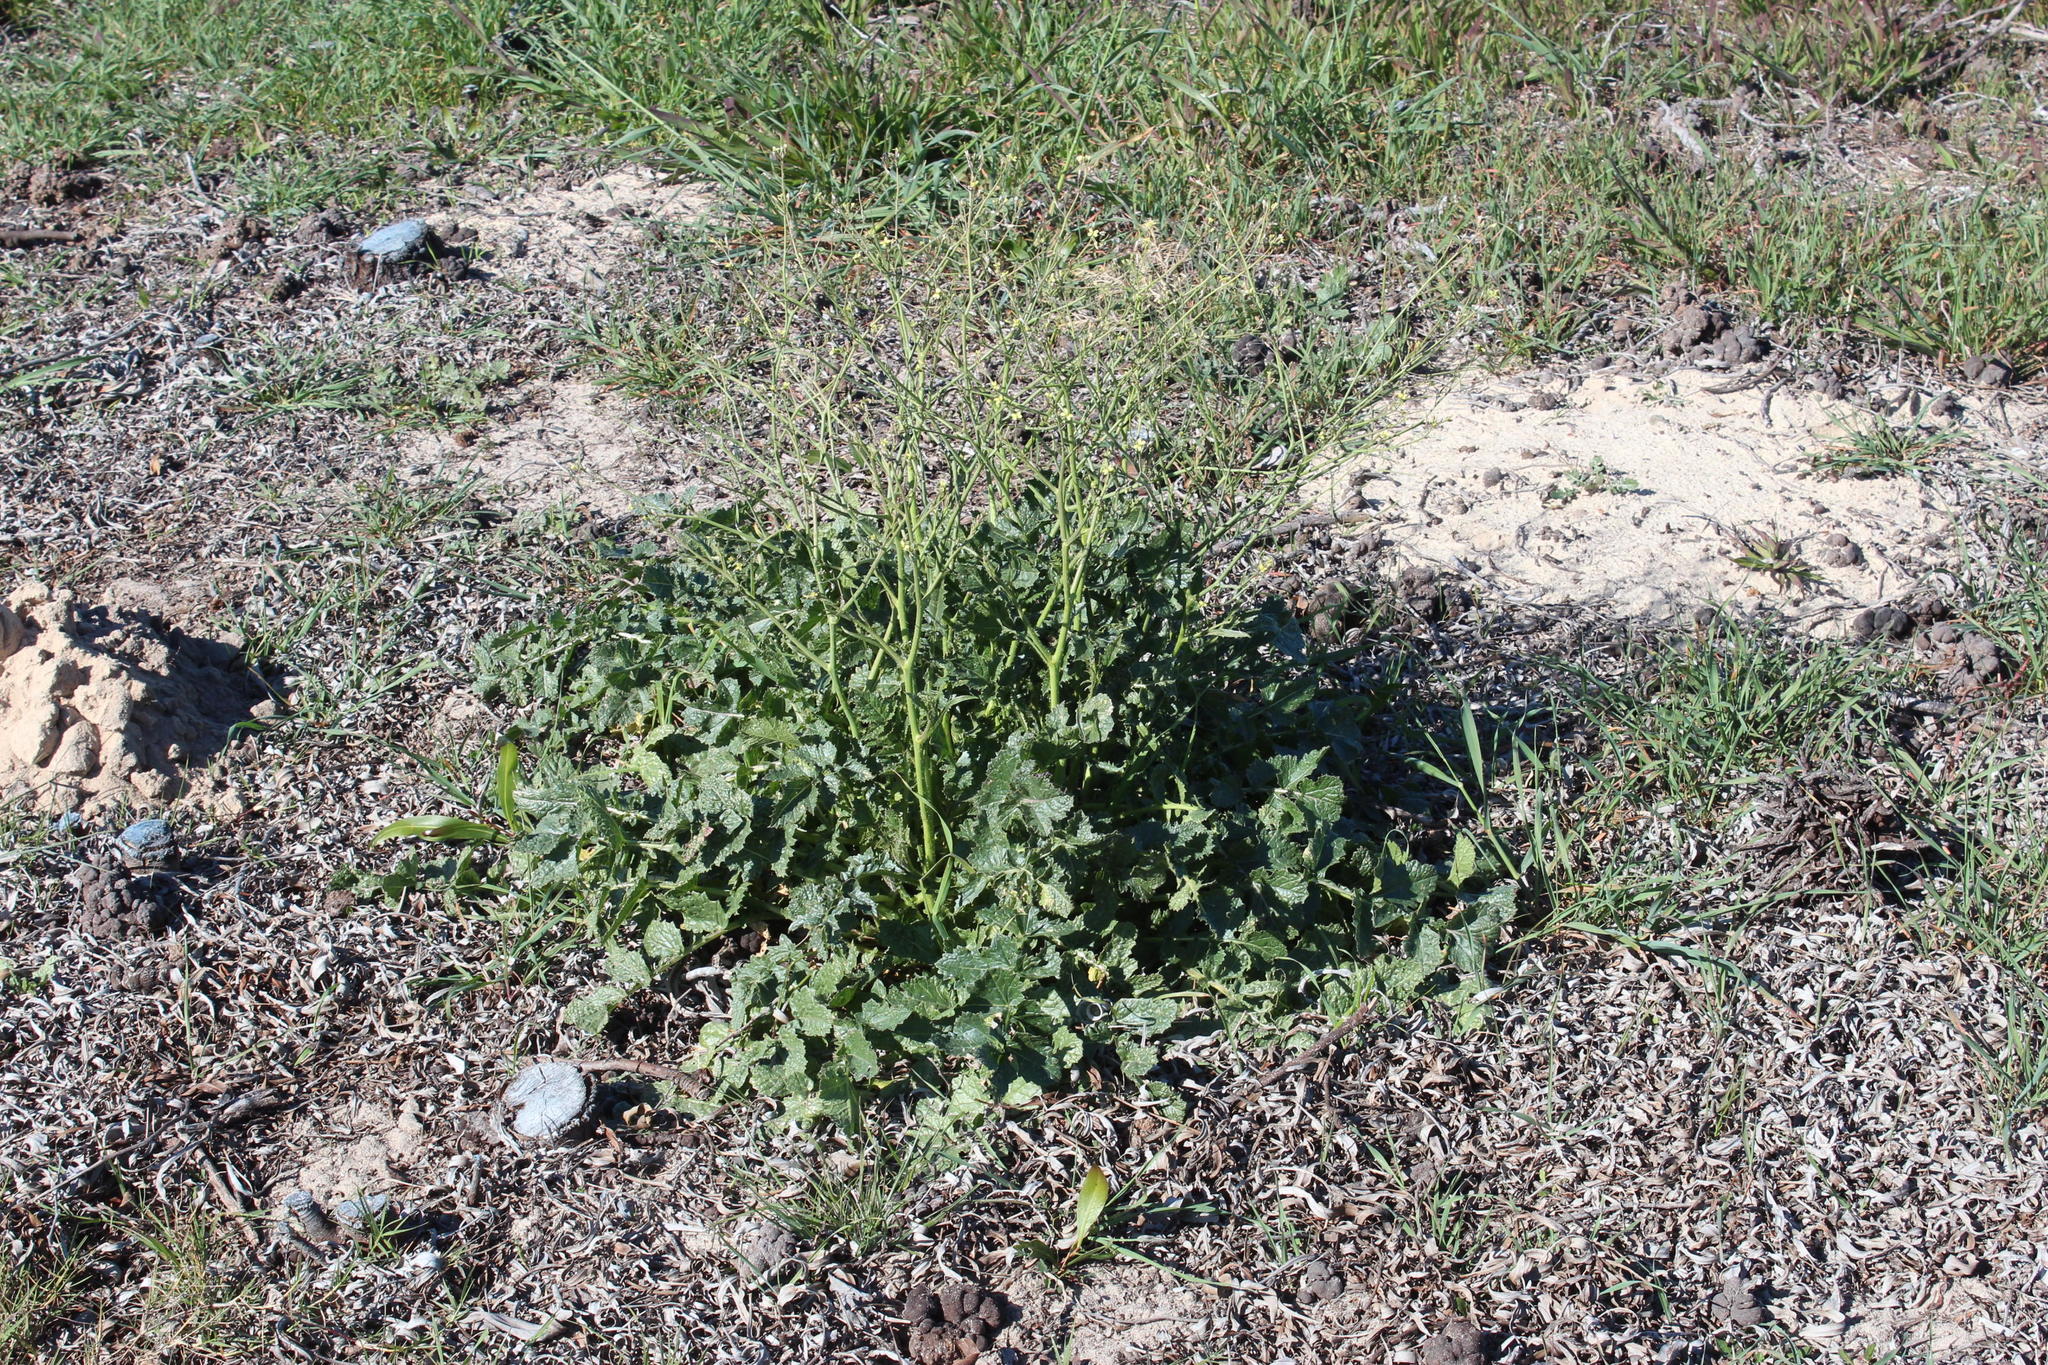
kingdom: Plantae
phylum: Tracheophyta
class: Magnoliopsida
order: Brassicales
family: Brassicaceae
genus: Brassica
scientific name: Brassica tournefortii
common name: Pale cabbage
